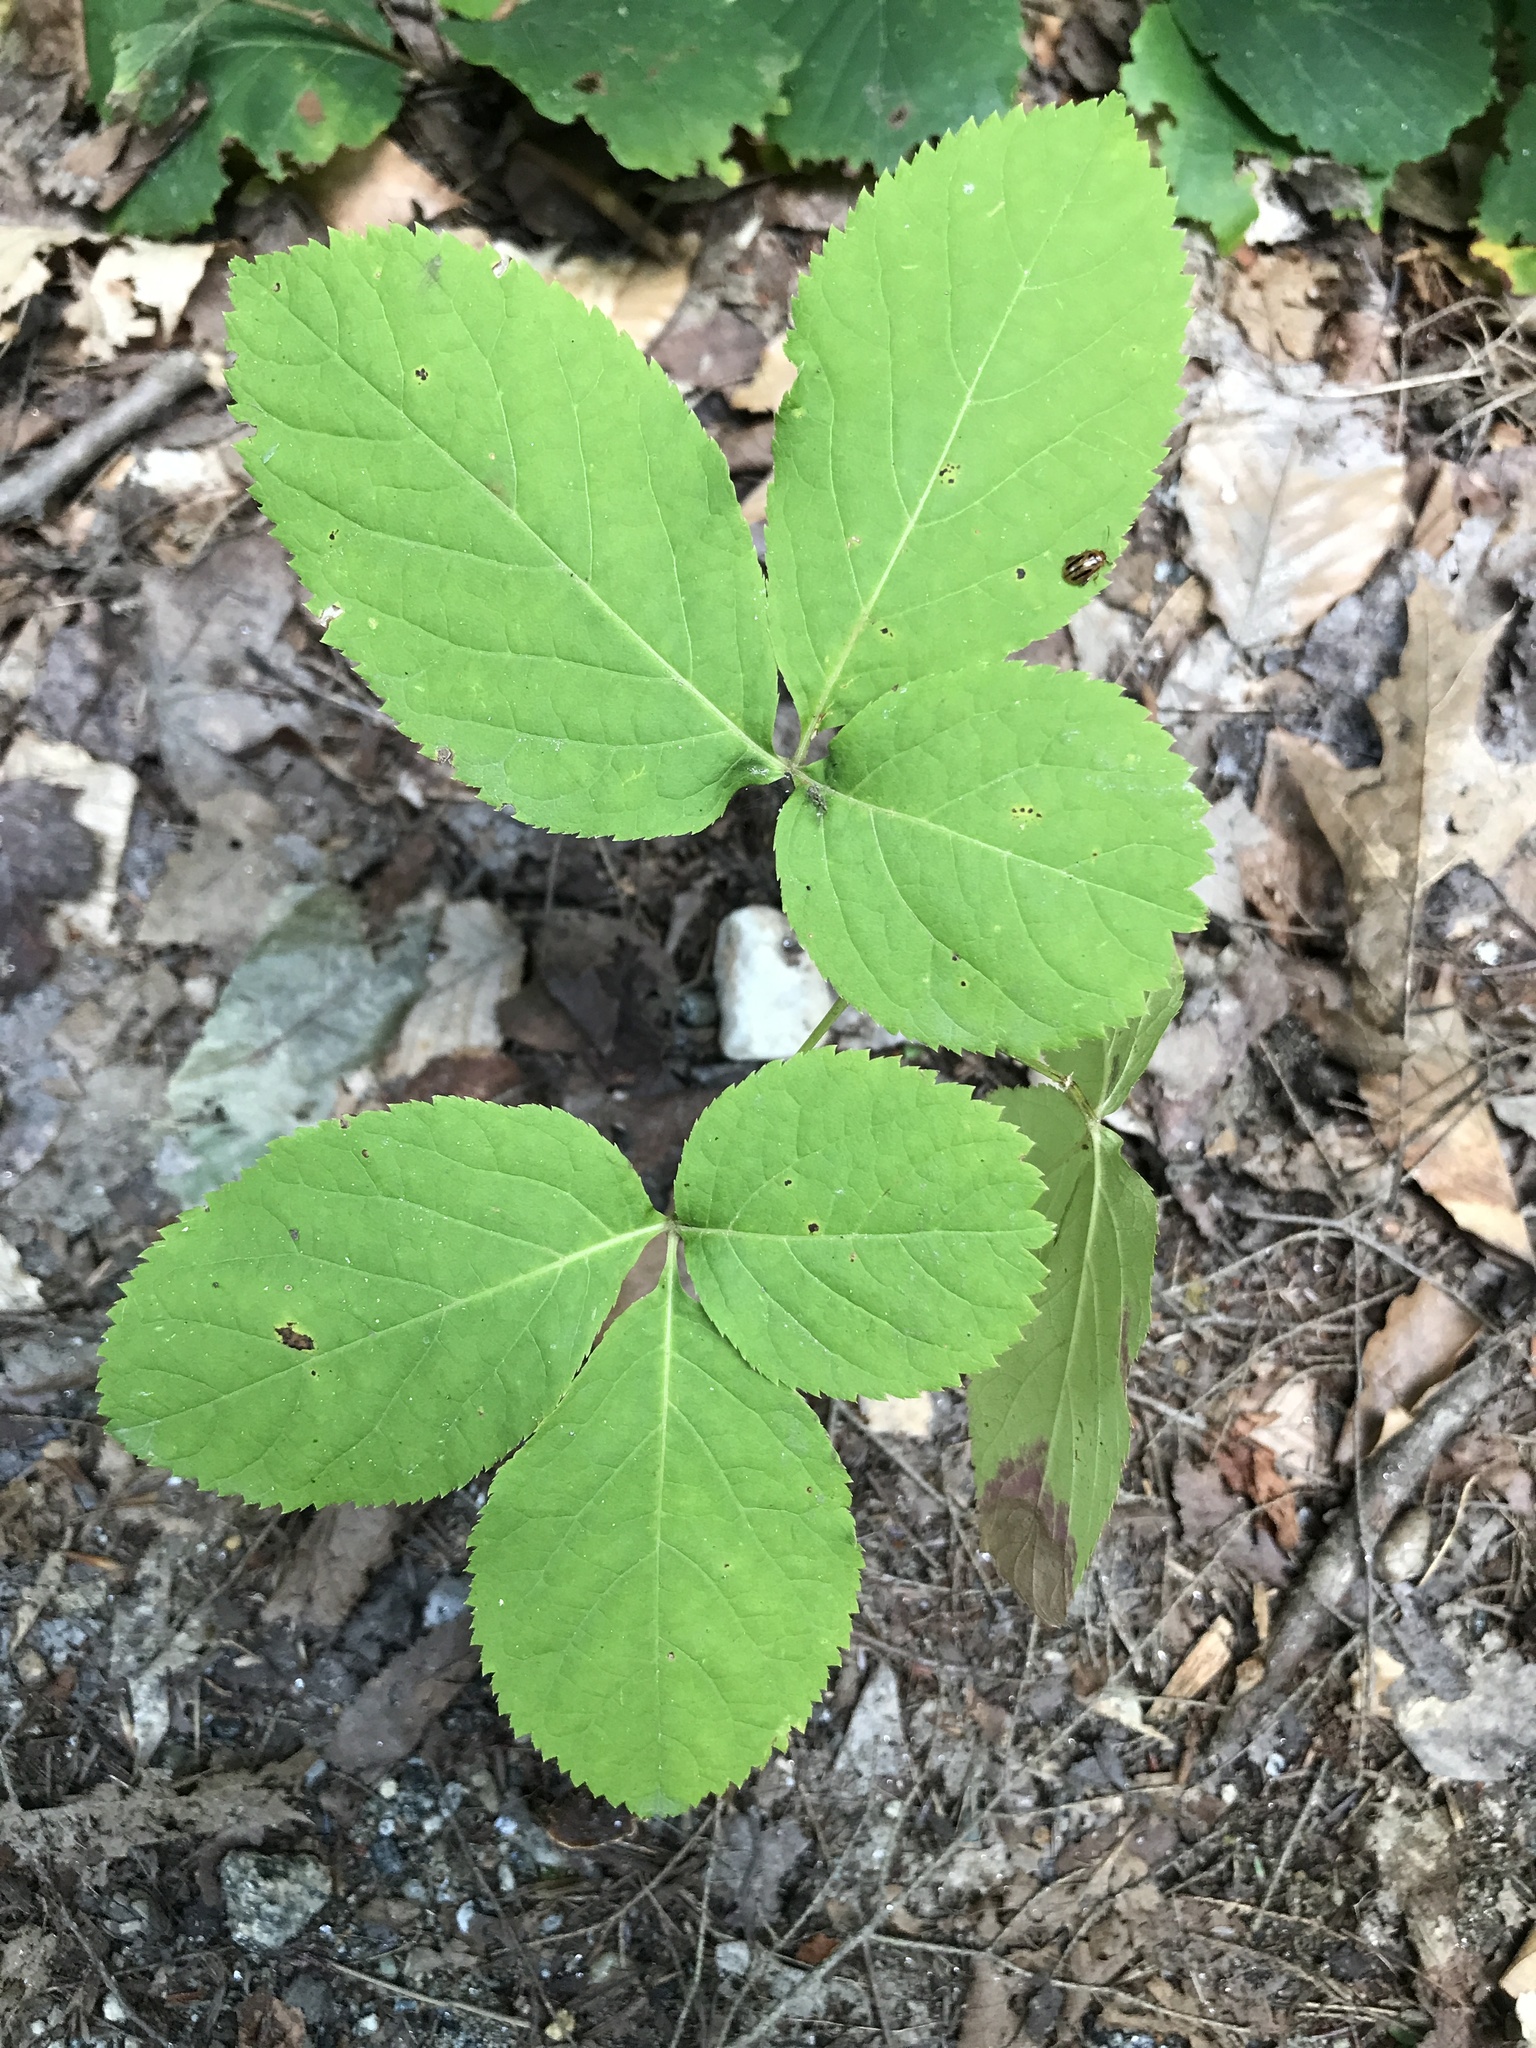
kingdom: Plantae
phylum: Tracheophyta
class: Magnoliopsida
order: Apiales
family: Araliaceae
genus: Aralia
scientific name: Aralia nudicaulis
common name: Wild sarsaparilla
